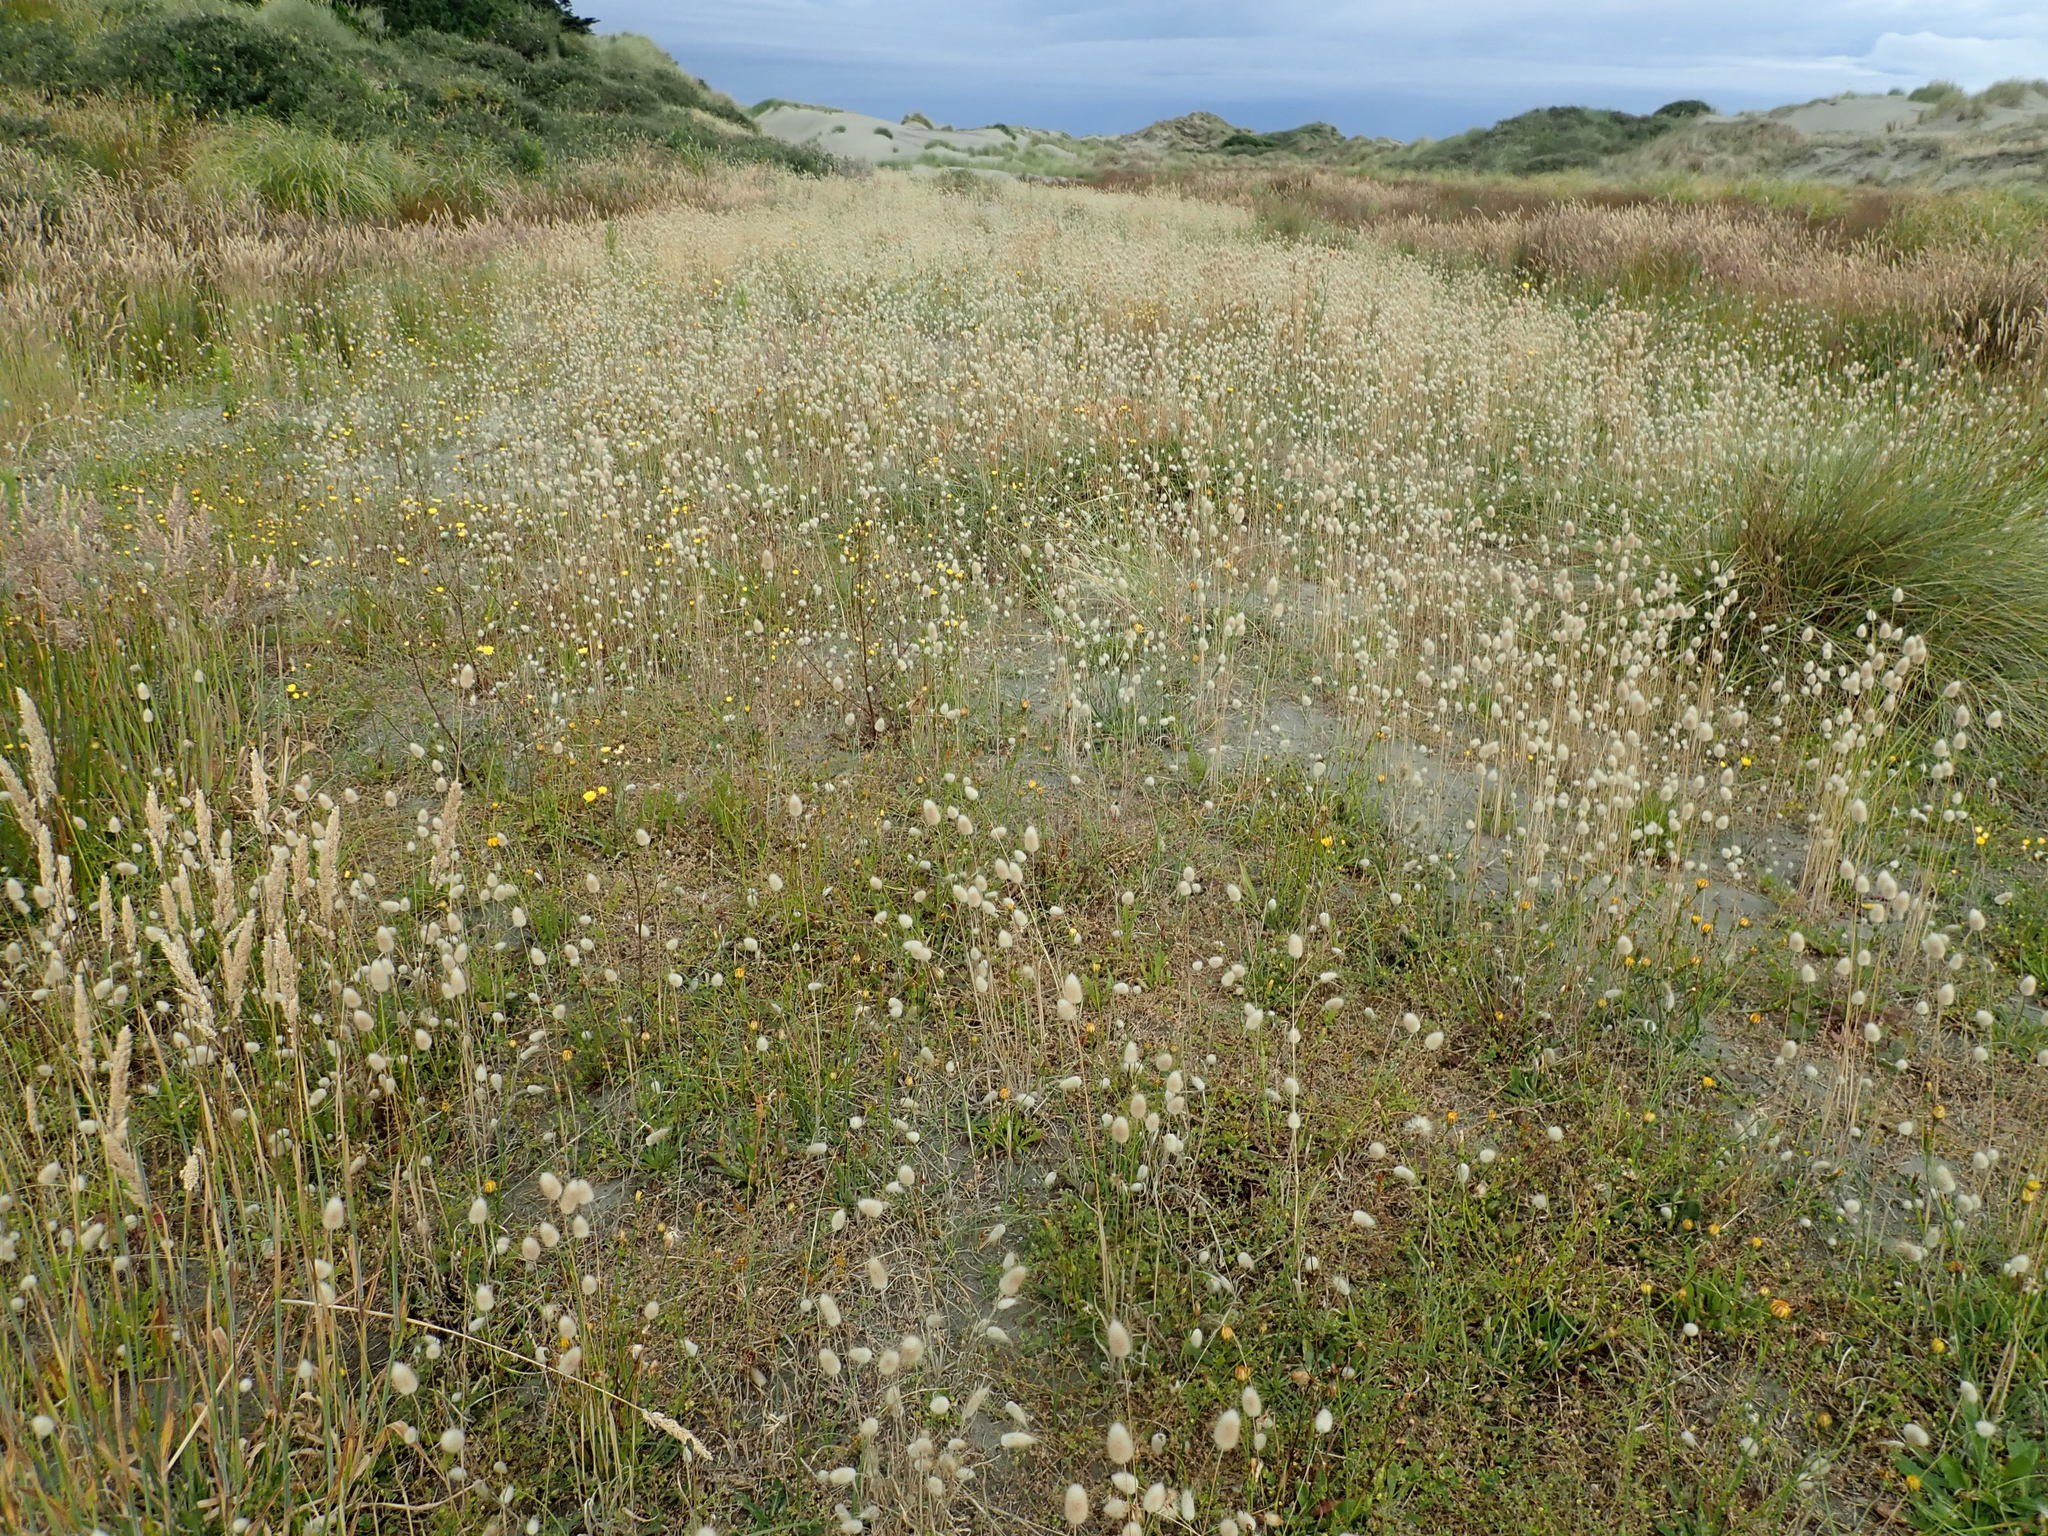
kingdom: Plantae
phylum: Tracheophyta
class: Liliopsida
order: Poales
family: Poaceae
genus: Lagurus
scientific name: Lagurus ovatus
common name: Hare's-tail
